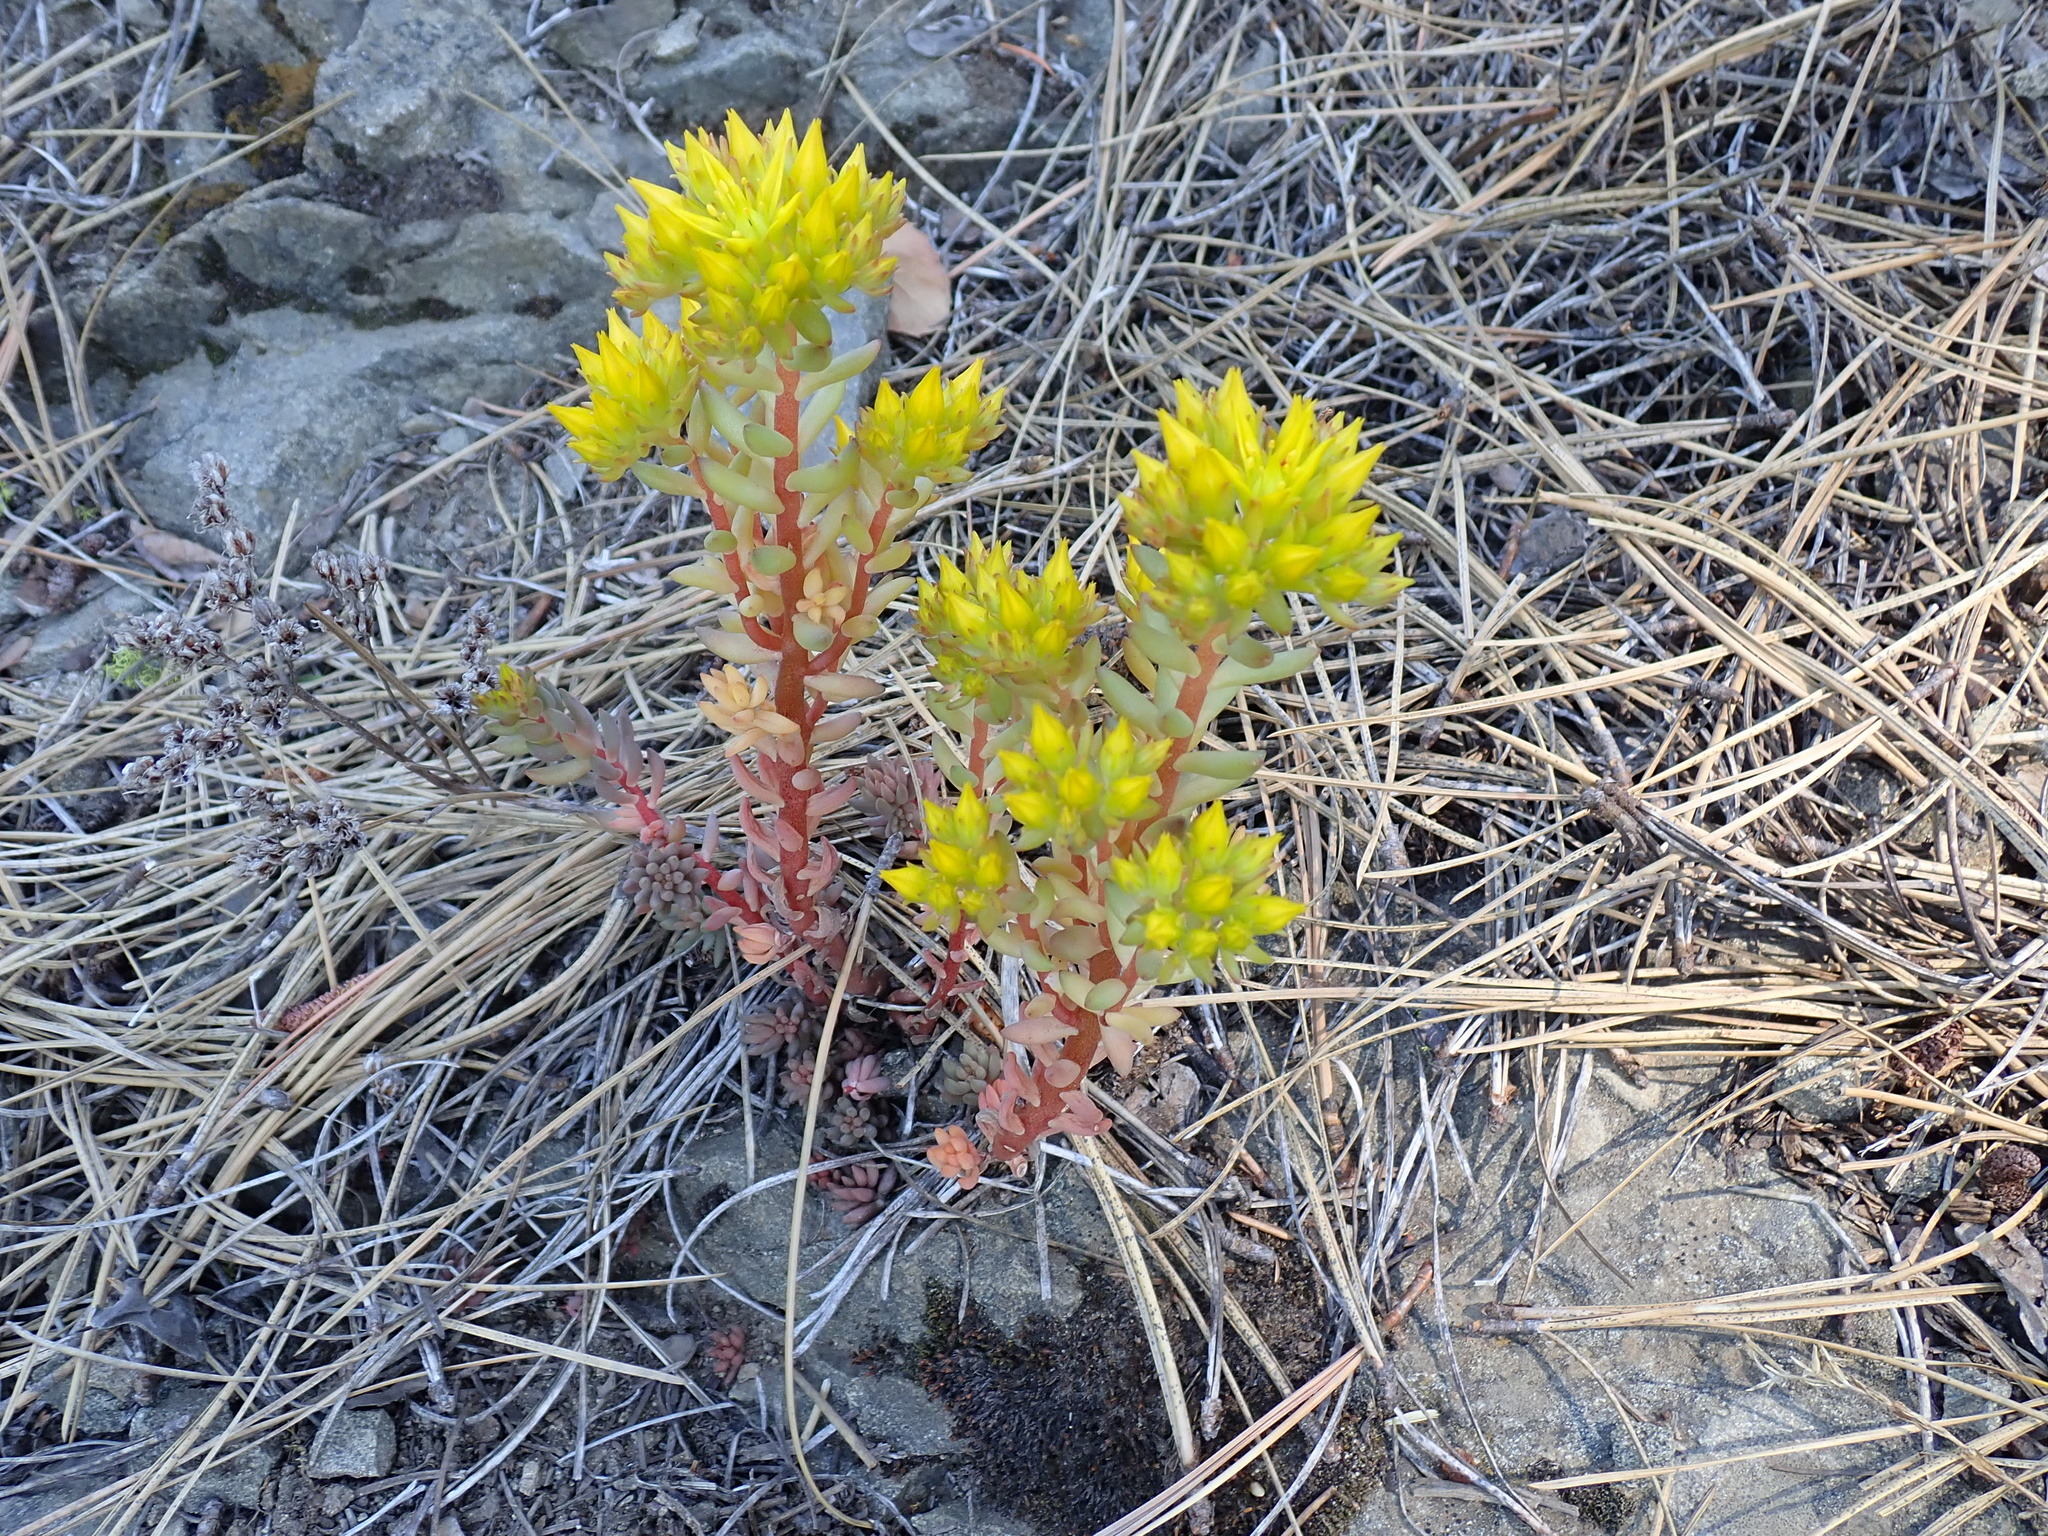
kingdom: Plantae
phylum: Tracheophyta
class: Magnoliopsida
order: Saxifragales
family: Crassulaceae
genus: Sedum
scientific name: Sedum lanceolatum
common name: Common stonecrop
